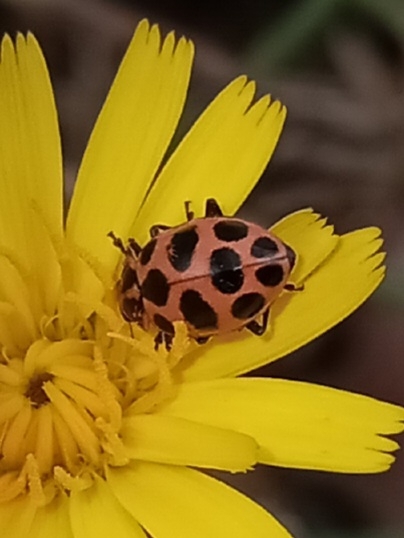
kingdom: Animalia
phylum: Arthropoda
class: Insecta
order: Coleoptera
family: Coccinellidae
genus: Coleomegilla
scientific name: Coleomegilla maculata
